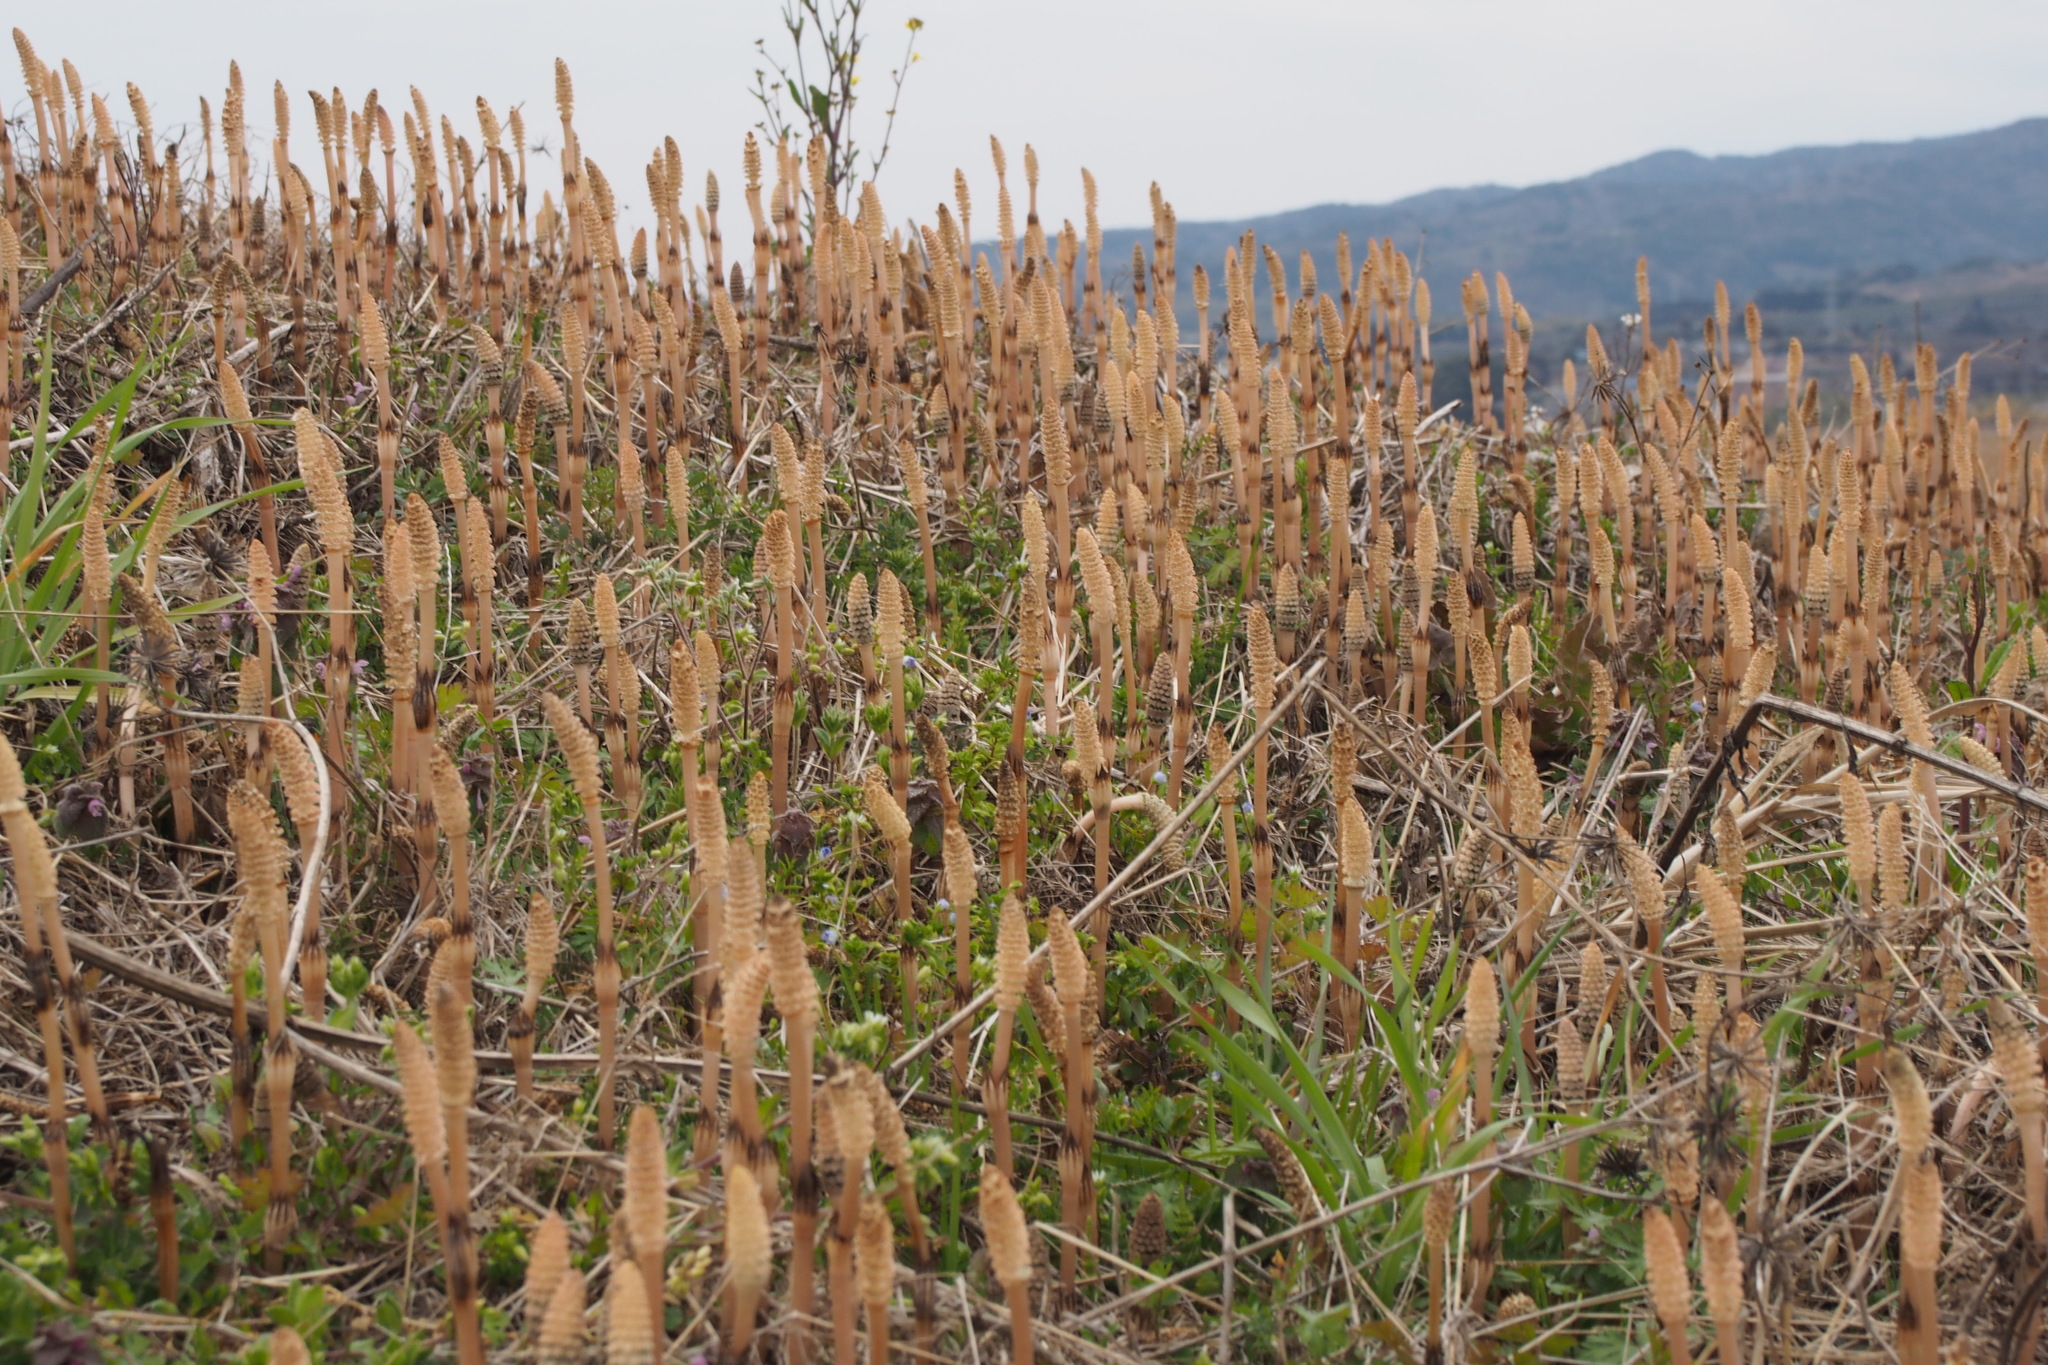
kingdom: Plantae
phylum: Tracheophyta
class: Polypodiopsida
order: Equisetales
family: Equisetaceae
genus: Equisetum
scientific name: Equisetum arvense
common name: Field horsetail
